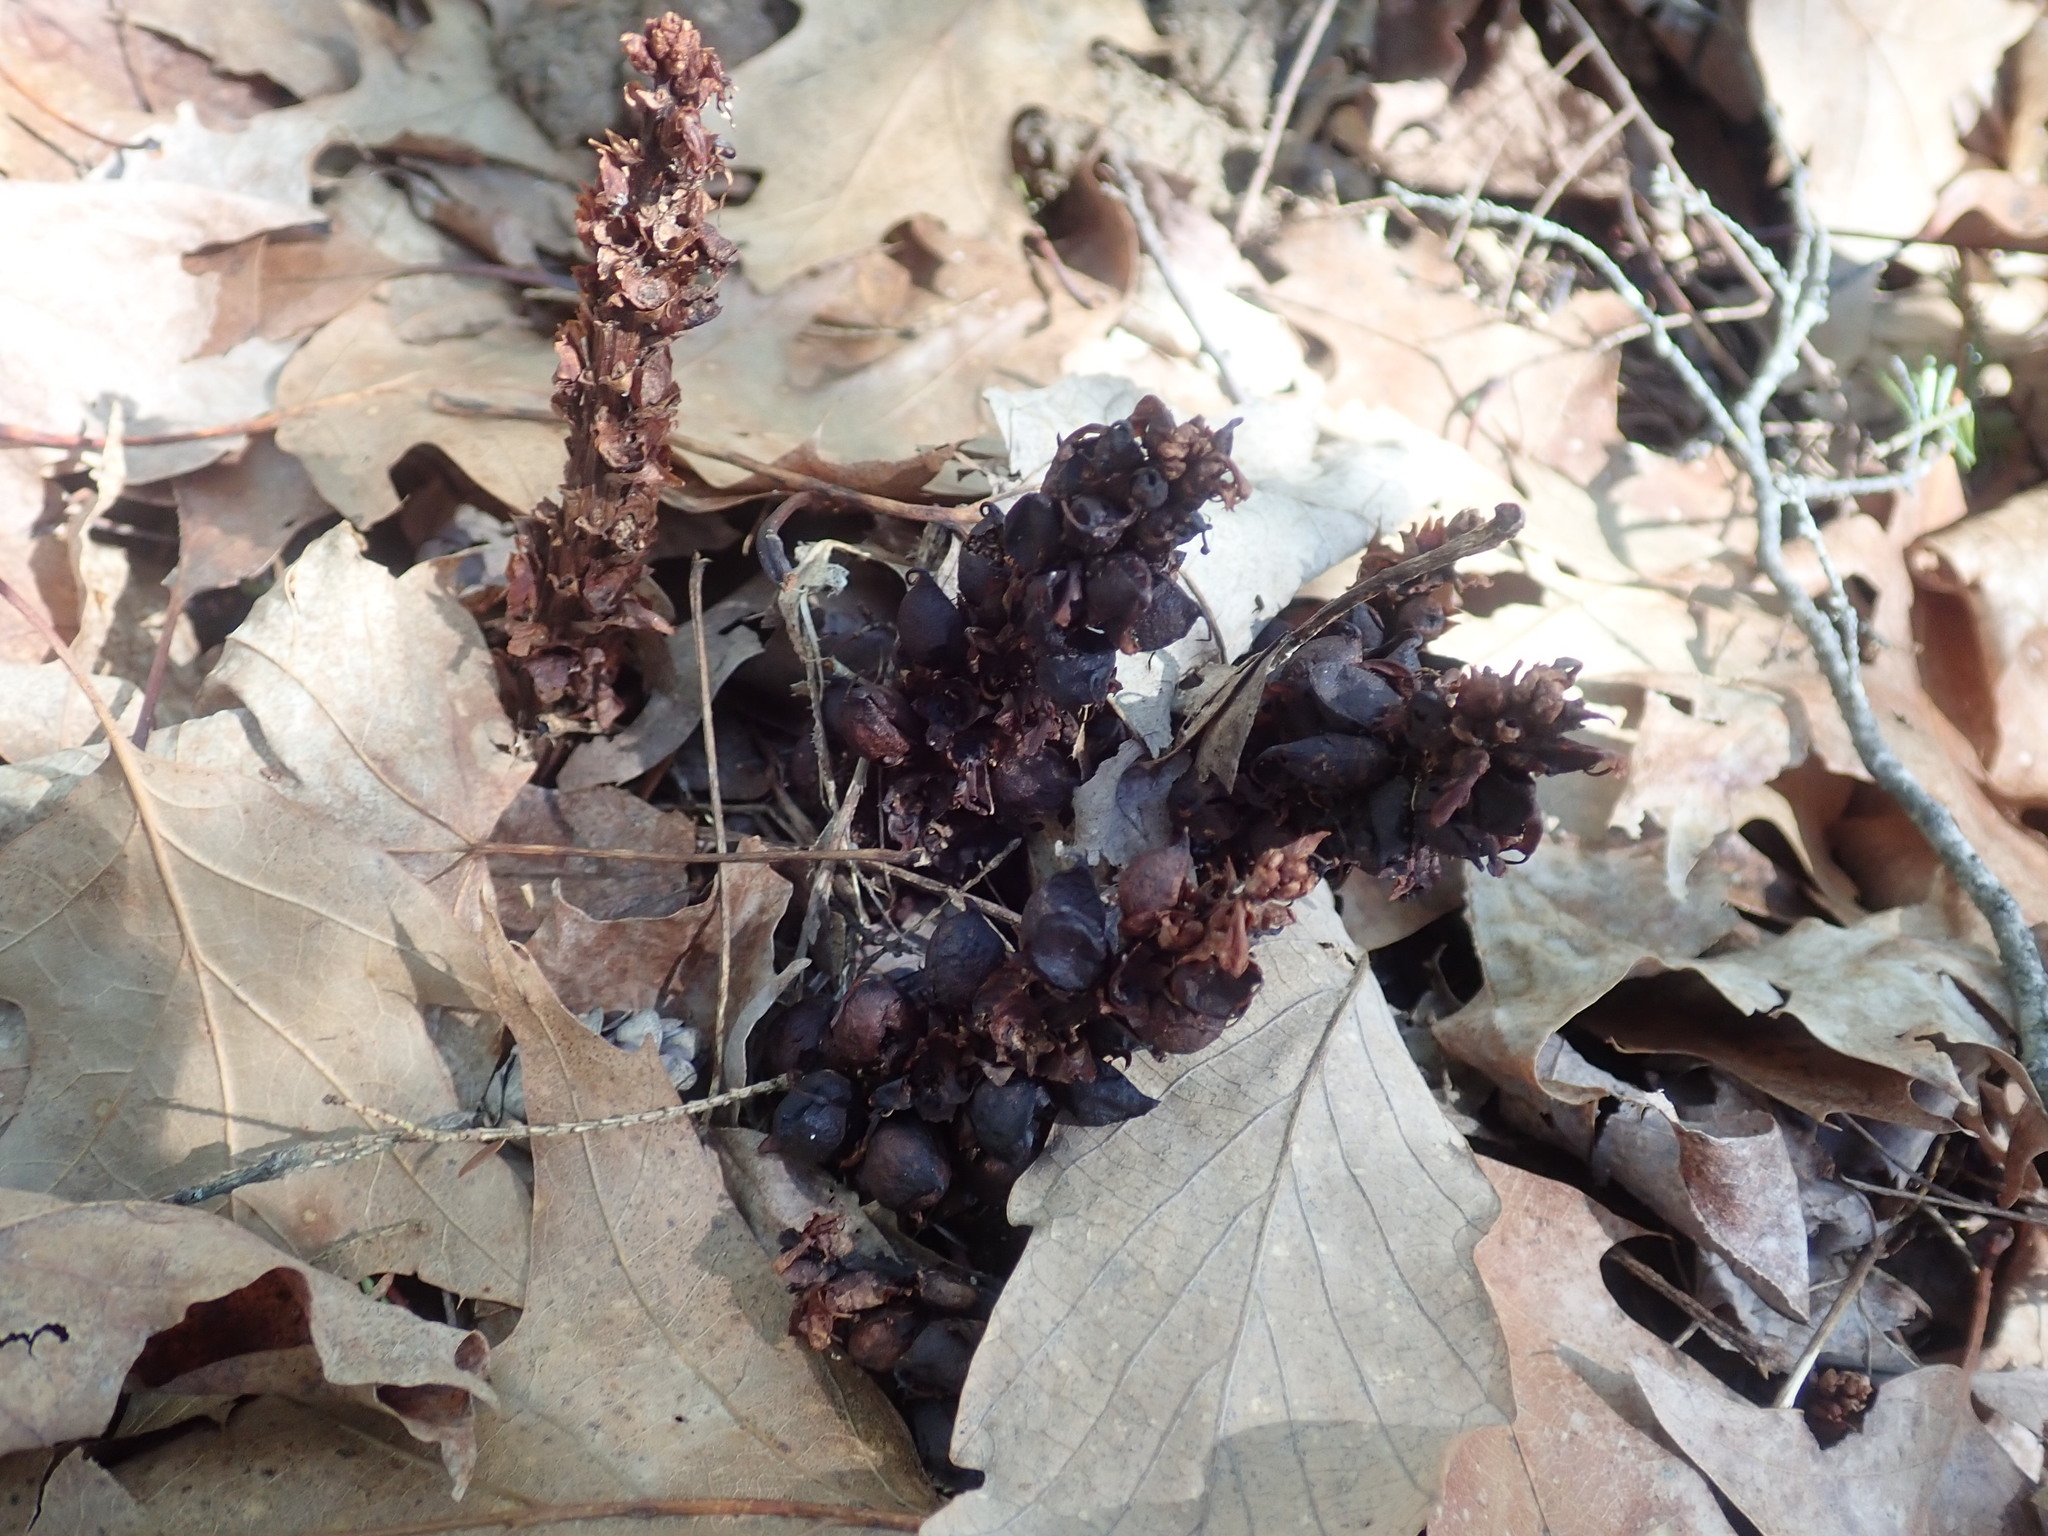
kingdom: Plantae
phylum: Tracheophyta
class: Magnoliopsida
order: Lamiales
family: Orobanchaceae
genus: Conopholis
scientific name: Conopholis americana
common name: American cancer-root
